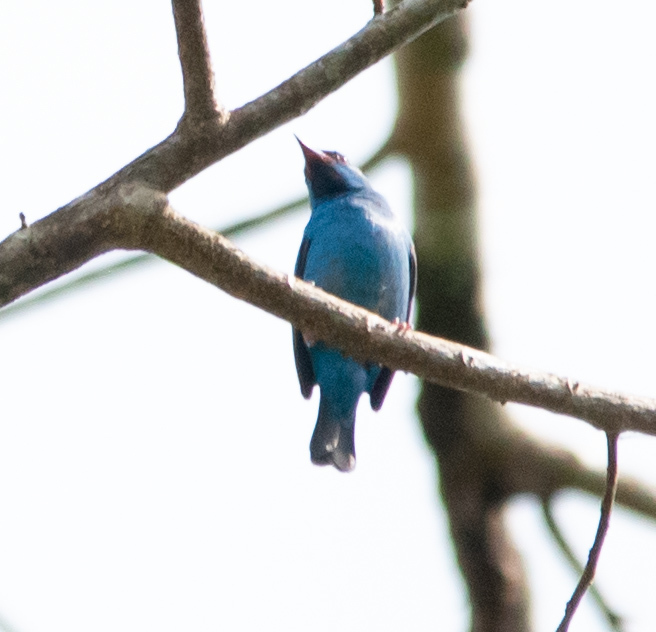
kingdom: Animalia
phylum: Chordata
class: Aves
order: Passeriformes
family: Thraupidae
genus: Dacnis
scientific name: Dacnis cayana
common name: Blue dacnis
